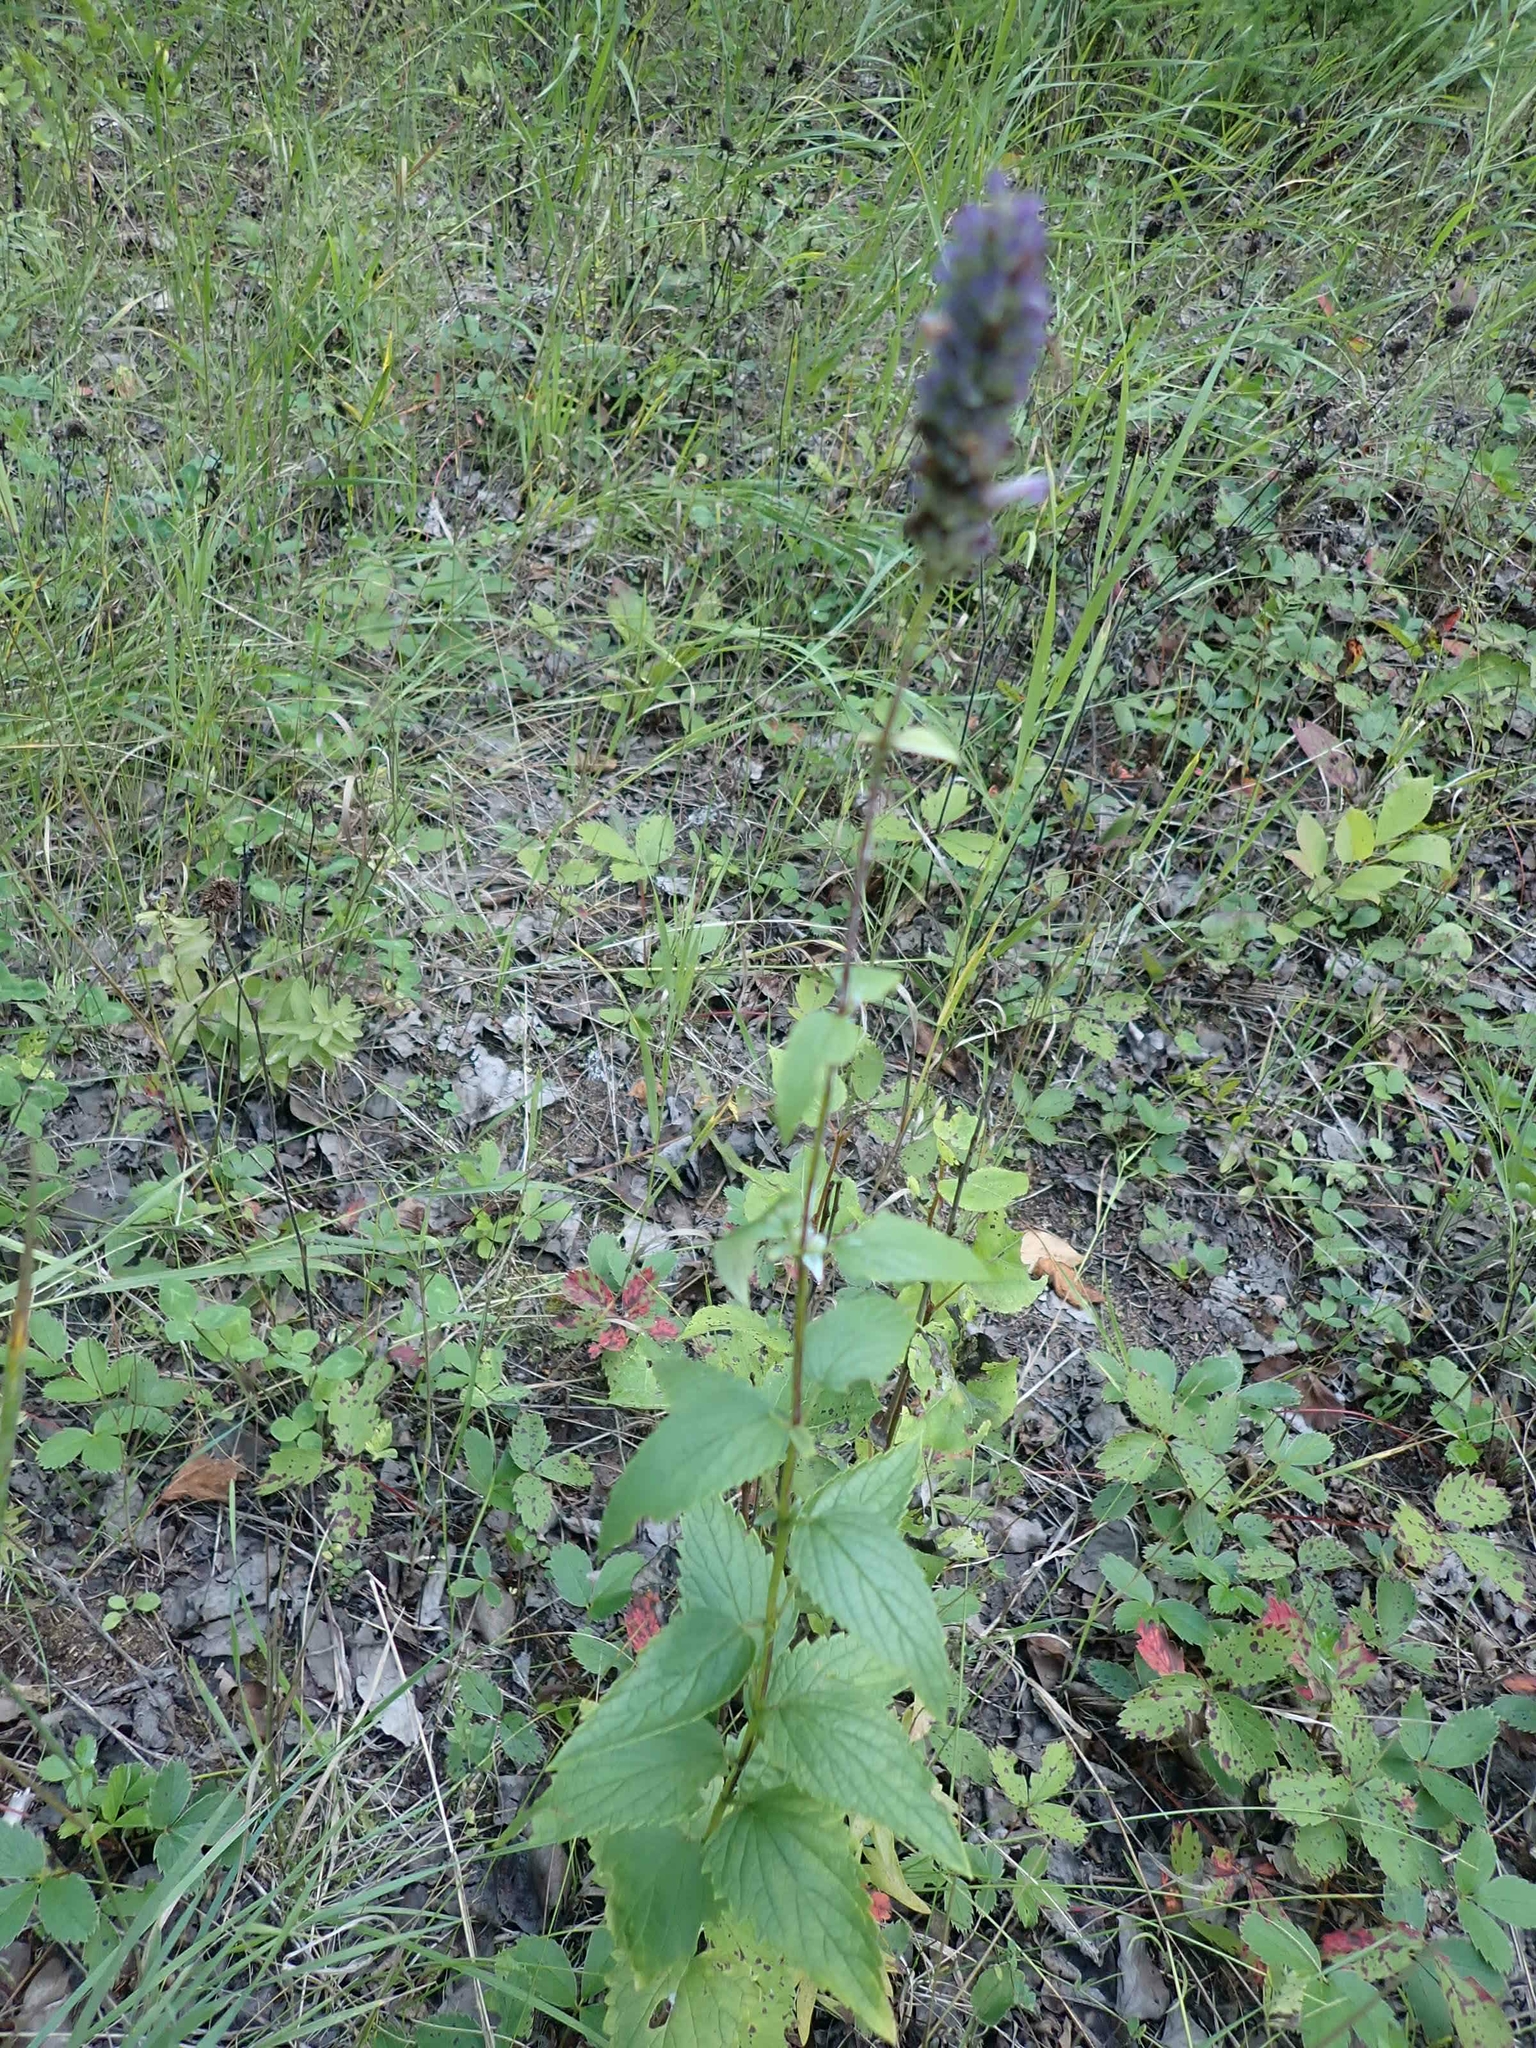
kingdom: Plantae
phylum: Tracheophyta
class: Magnoliopsida
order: Lamiales
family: Lamiaceae
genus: Agastache
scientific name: Agastache foeniculum
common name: Anise hyssop
